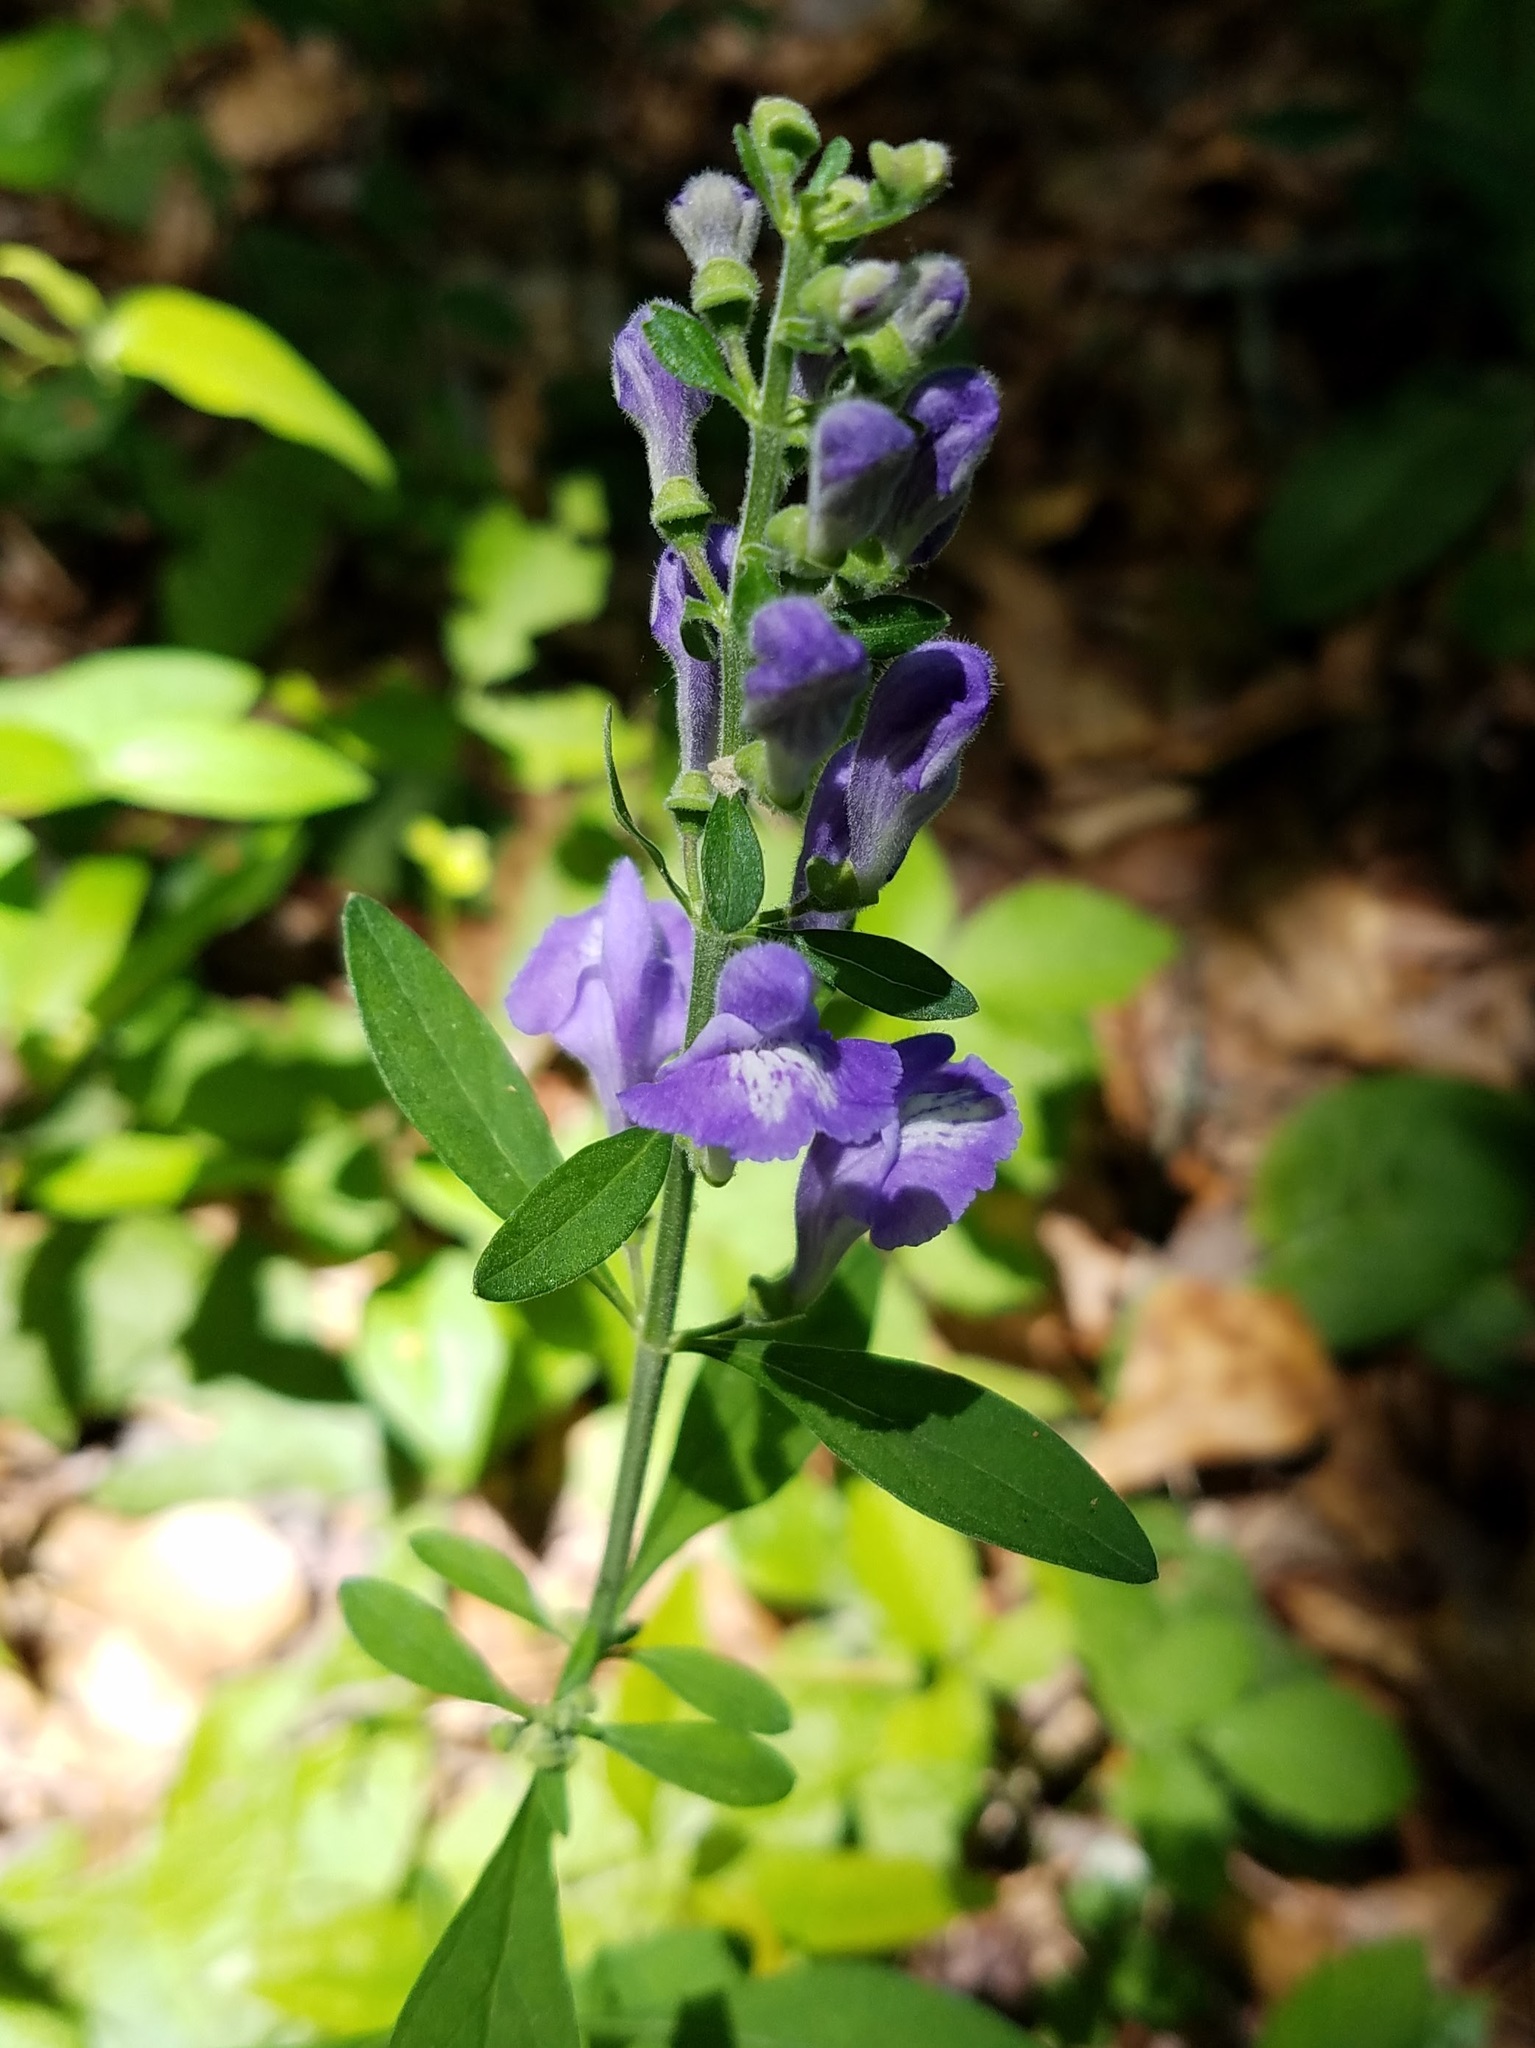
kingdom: Plantae
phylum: Tracheophyta
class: Magnoliopsida
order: Lamiales
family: Lamiaceae
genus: Scutellaria
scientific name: Scutellaria integrifolia
